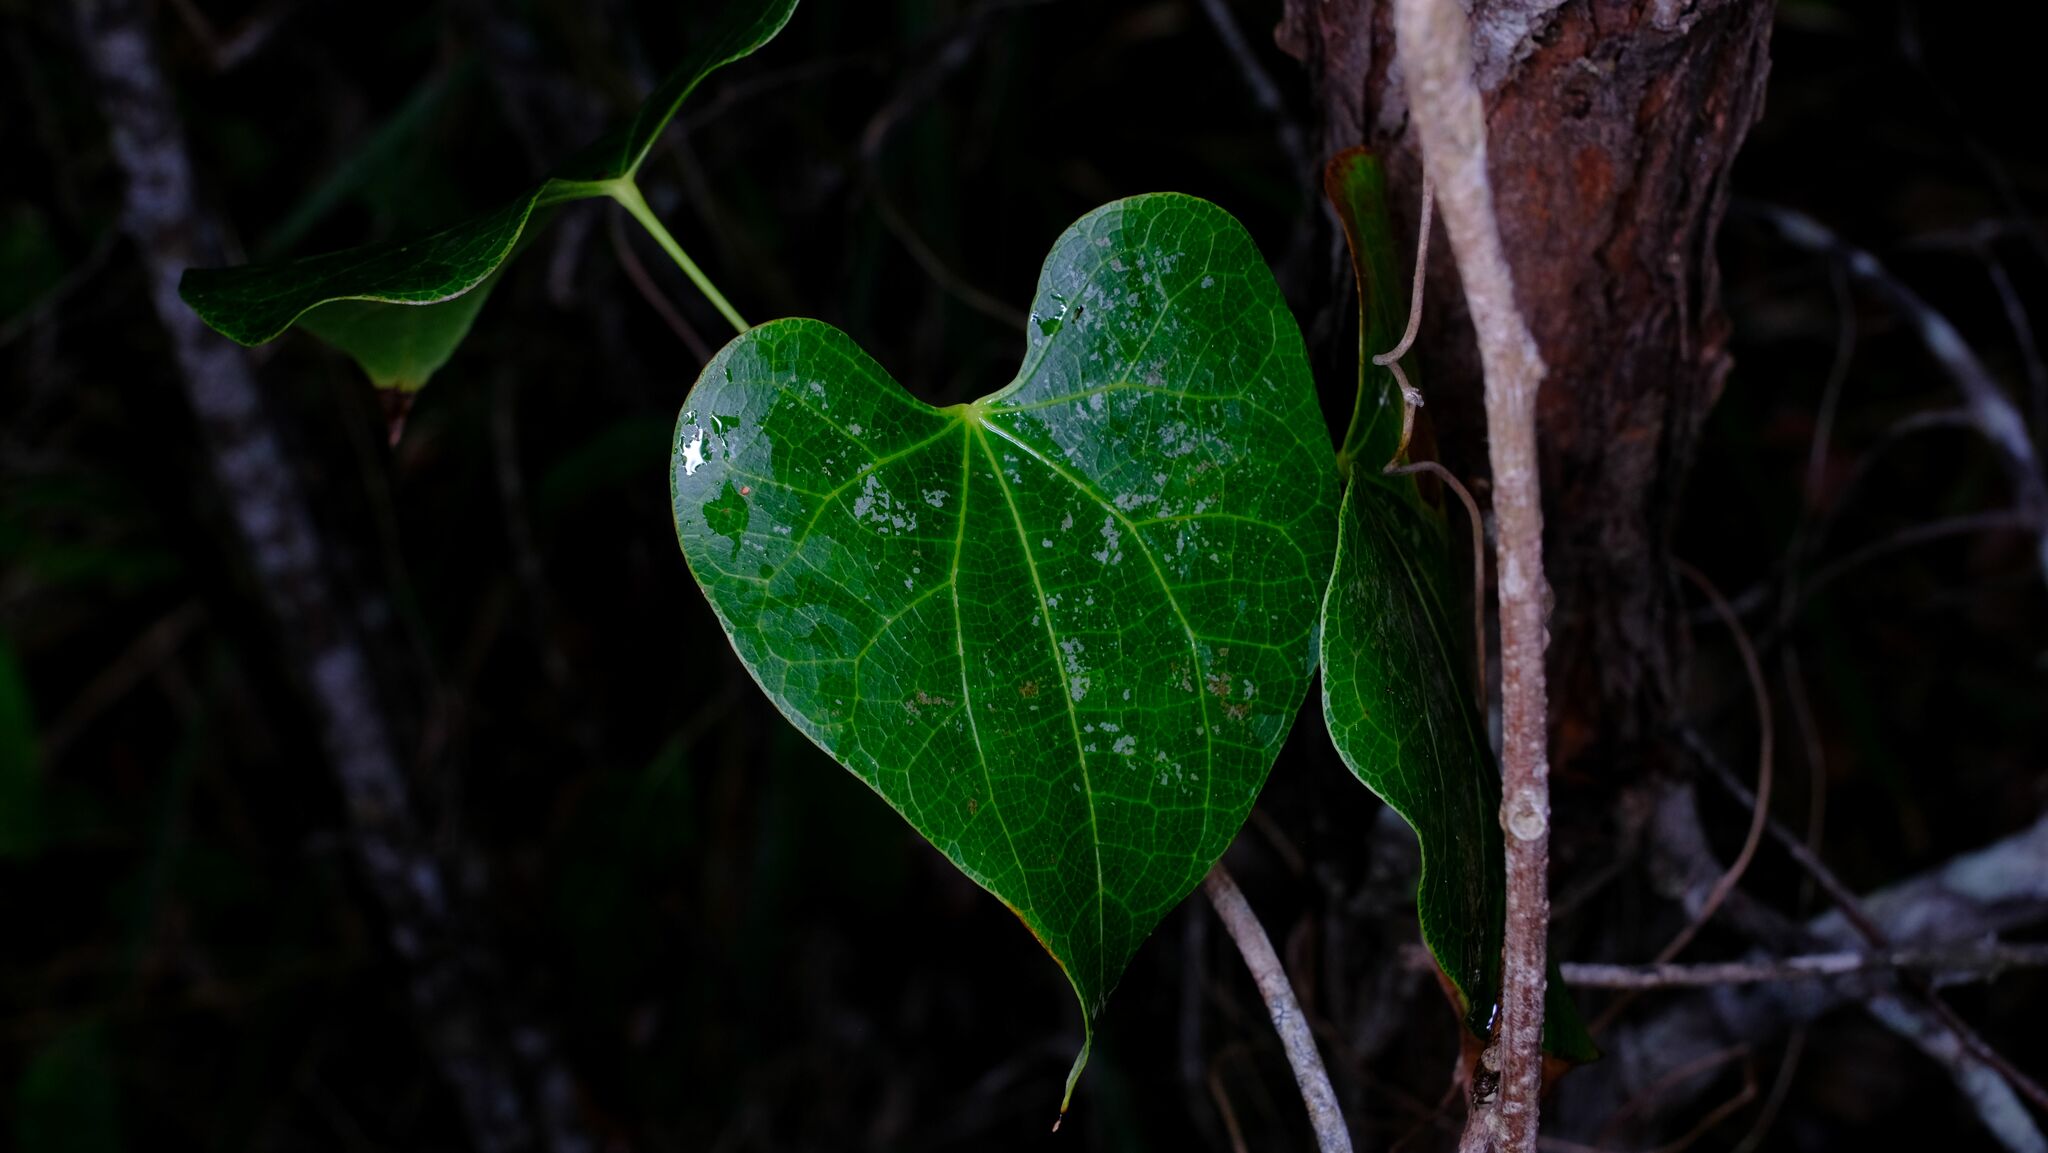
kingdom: Plantae
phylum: Tracheophyta
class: Magnoliopsida
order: Ranunculales
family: Menispermaceae
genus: Sarcopetalum
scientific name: Sarcopetalum harveyanum
